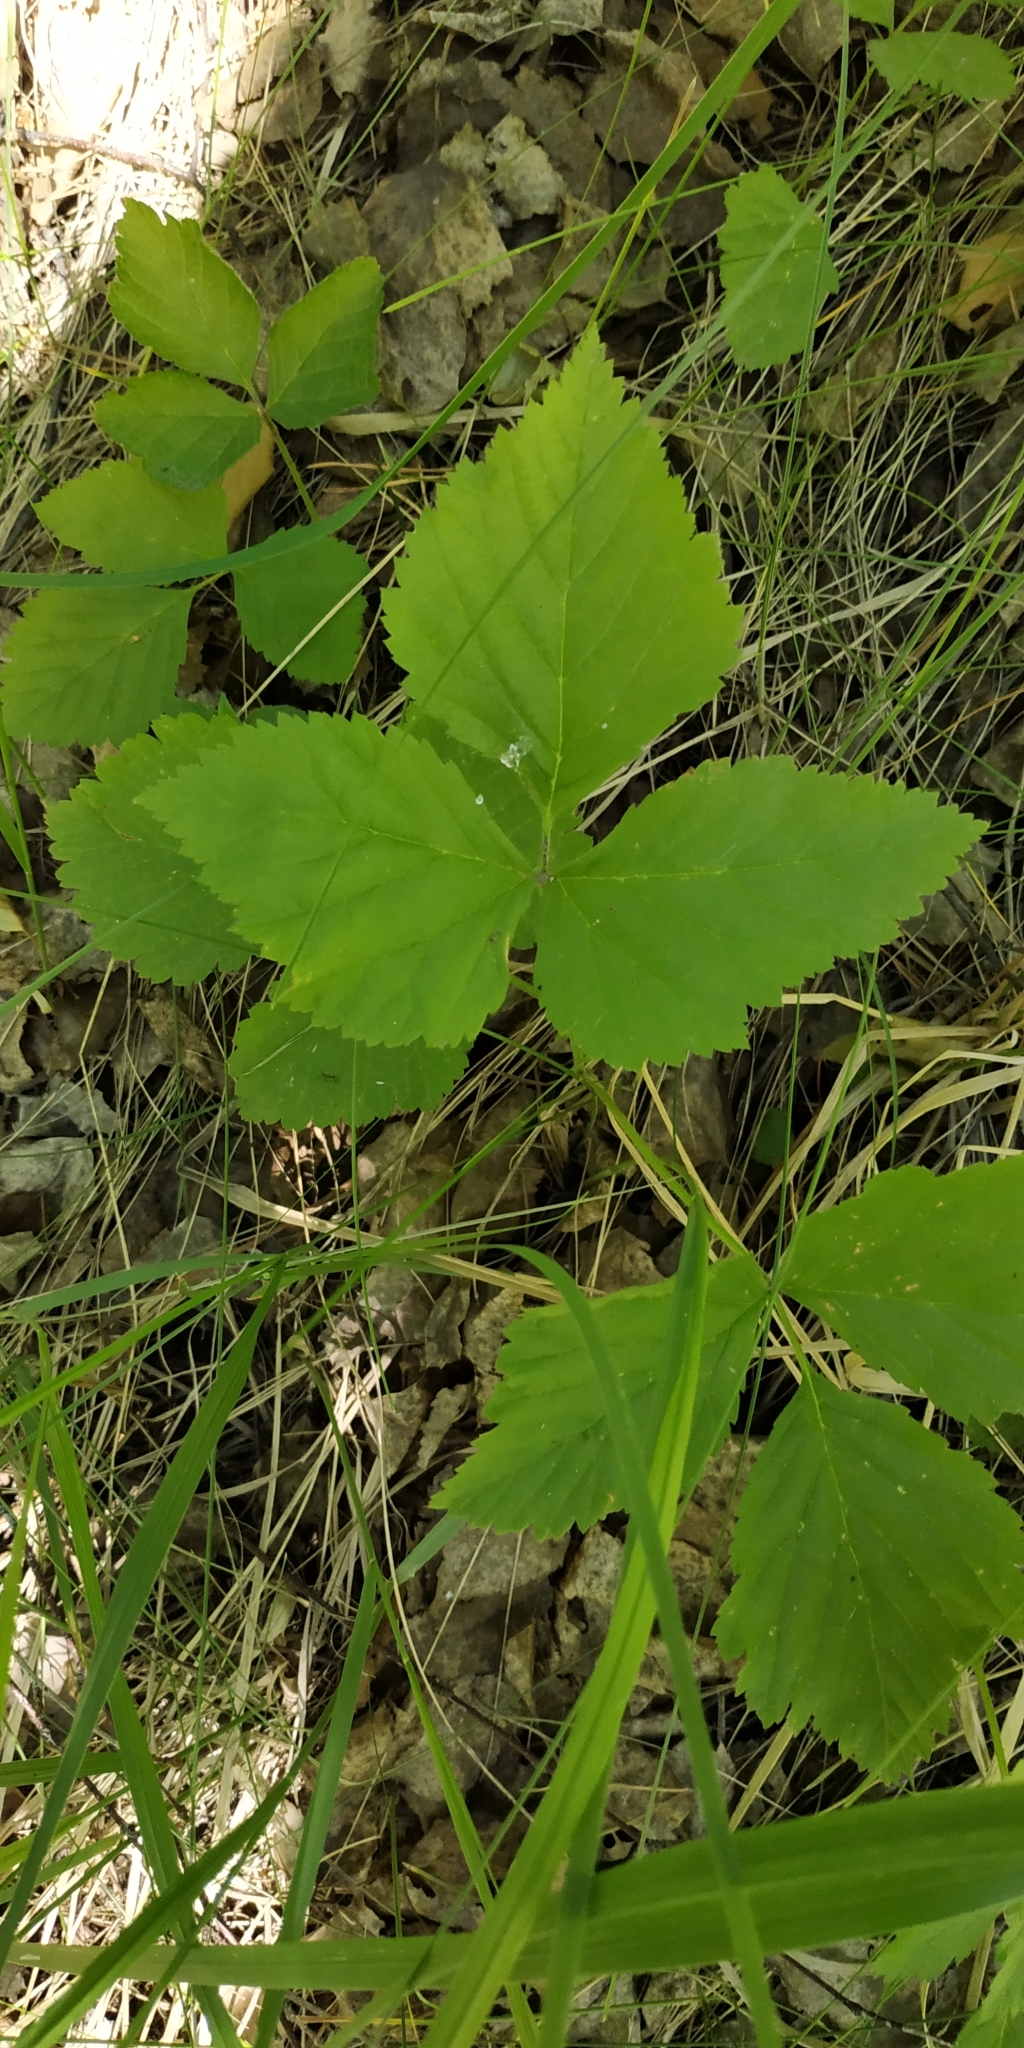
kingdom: Plantae
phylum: Tracheophyta
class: Magnoliopsida
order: Rosales
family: Rosaceae
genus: Rubus
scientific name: Rubus saxatilis
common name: Stone bramble
